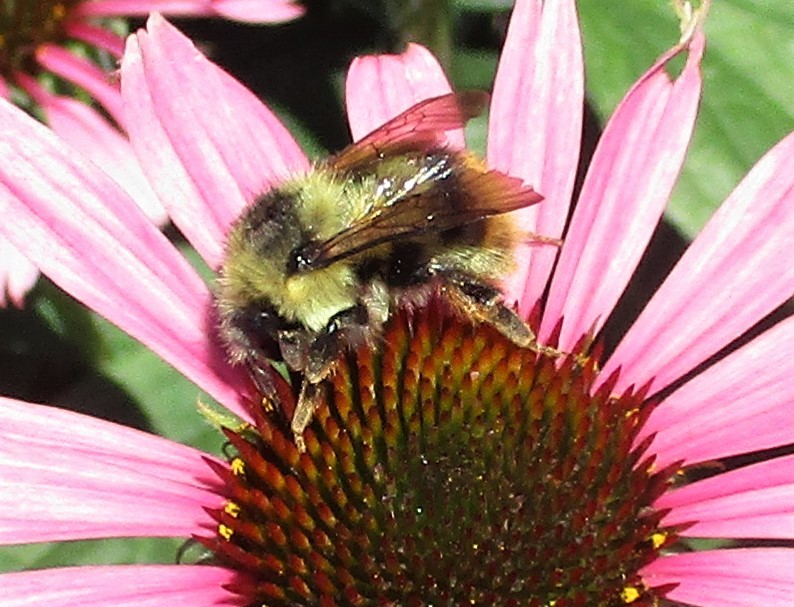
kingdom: Animalia
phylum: Arthropoda
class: Insecta
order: Hymenoptera
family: Apidae
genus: Bombus
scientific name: Bombus mixtus
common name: Fuzzy-horned bumble bee
